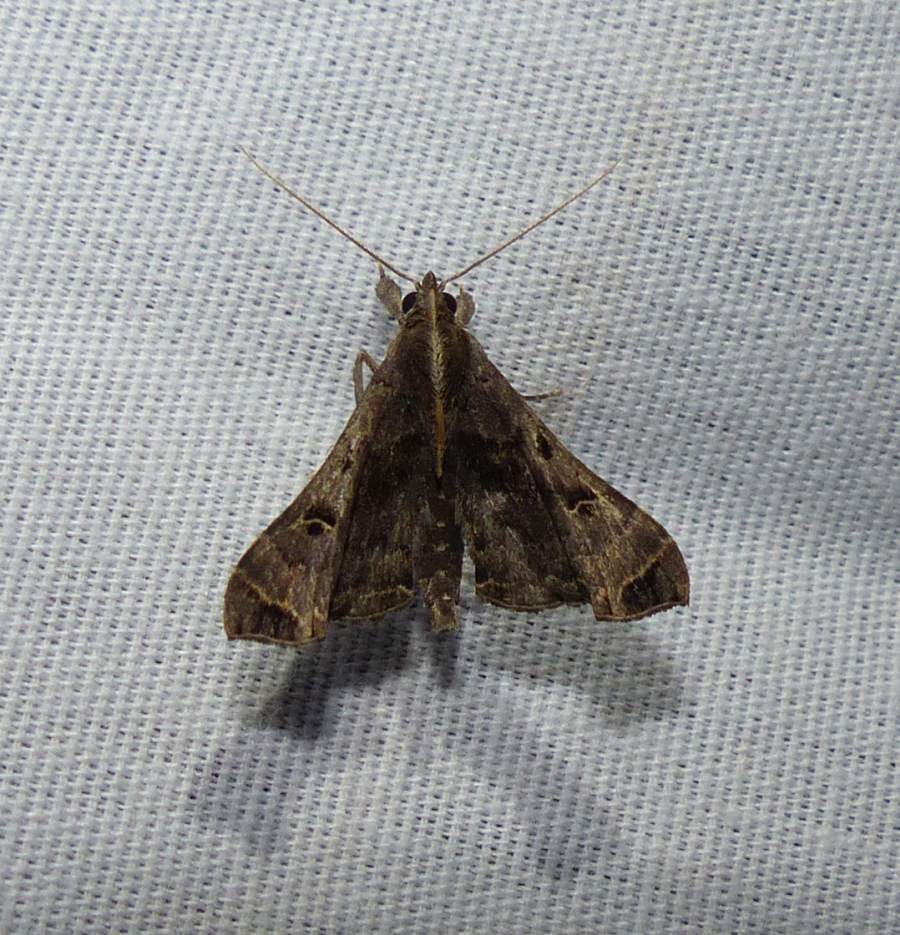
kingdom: Animalia
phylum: Arthropoda
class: Insecta
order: Lepidoptera
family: Erebidae
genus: Palthis
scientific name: Palthis asopialis
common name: Faint-spotted palthis moth
